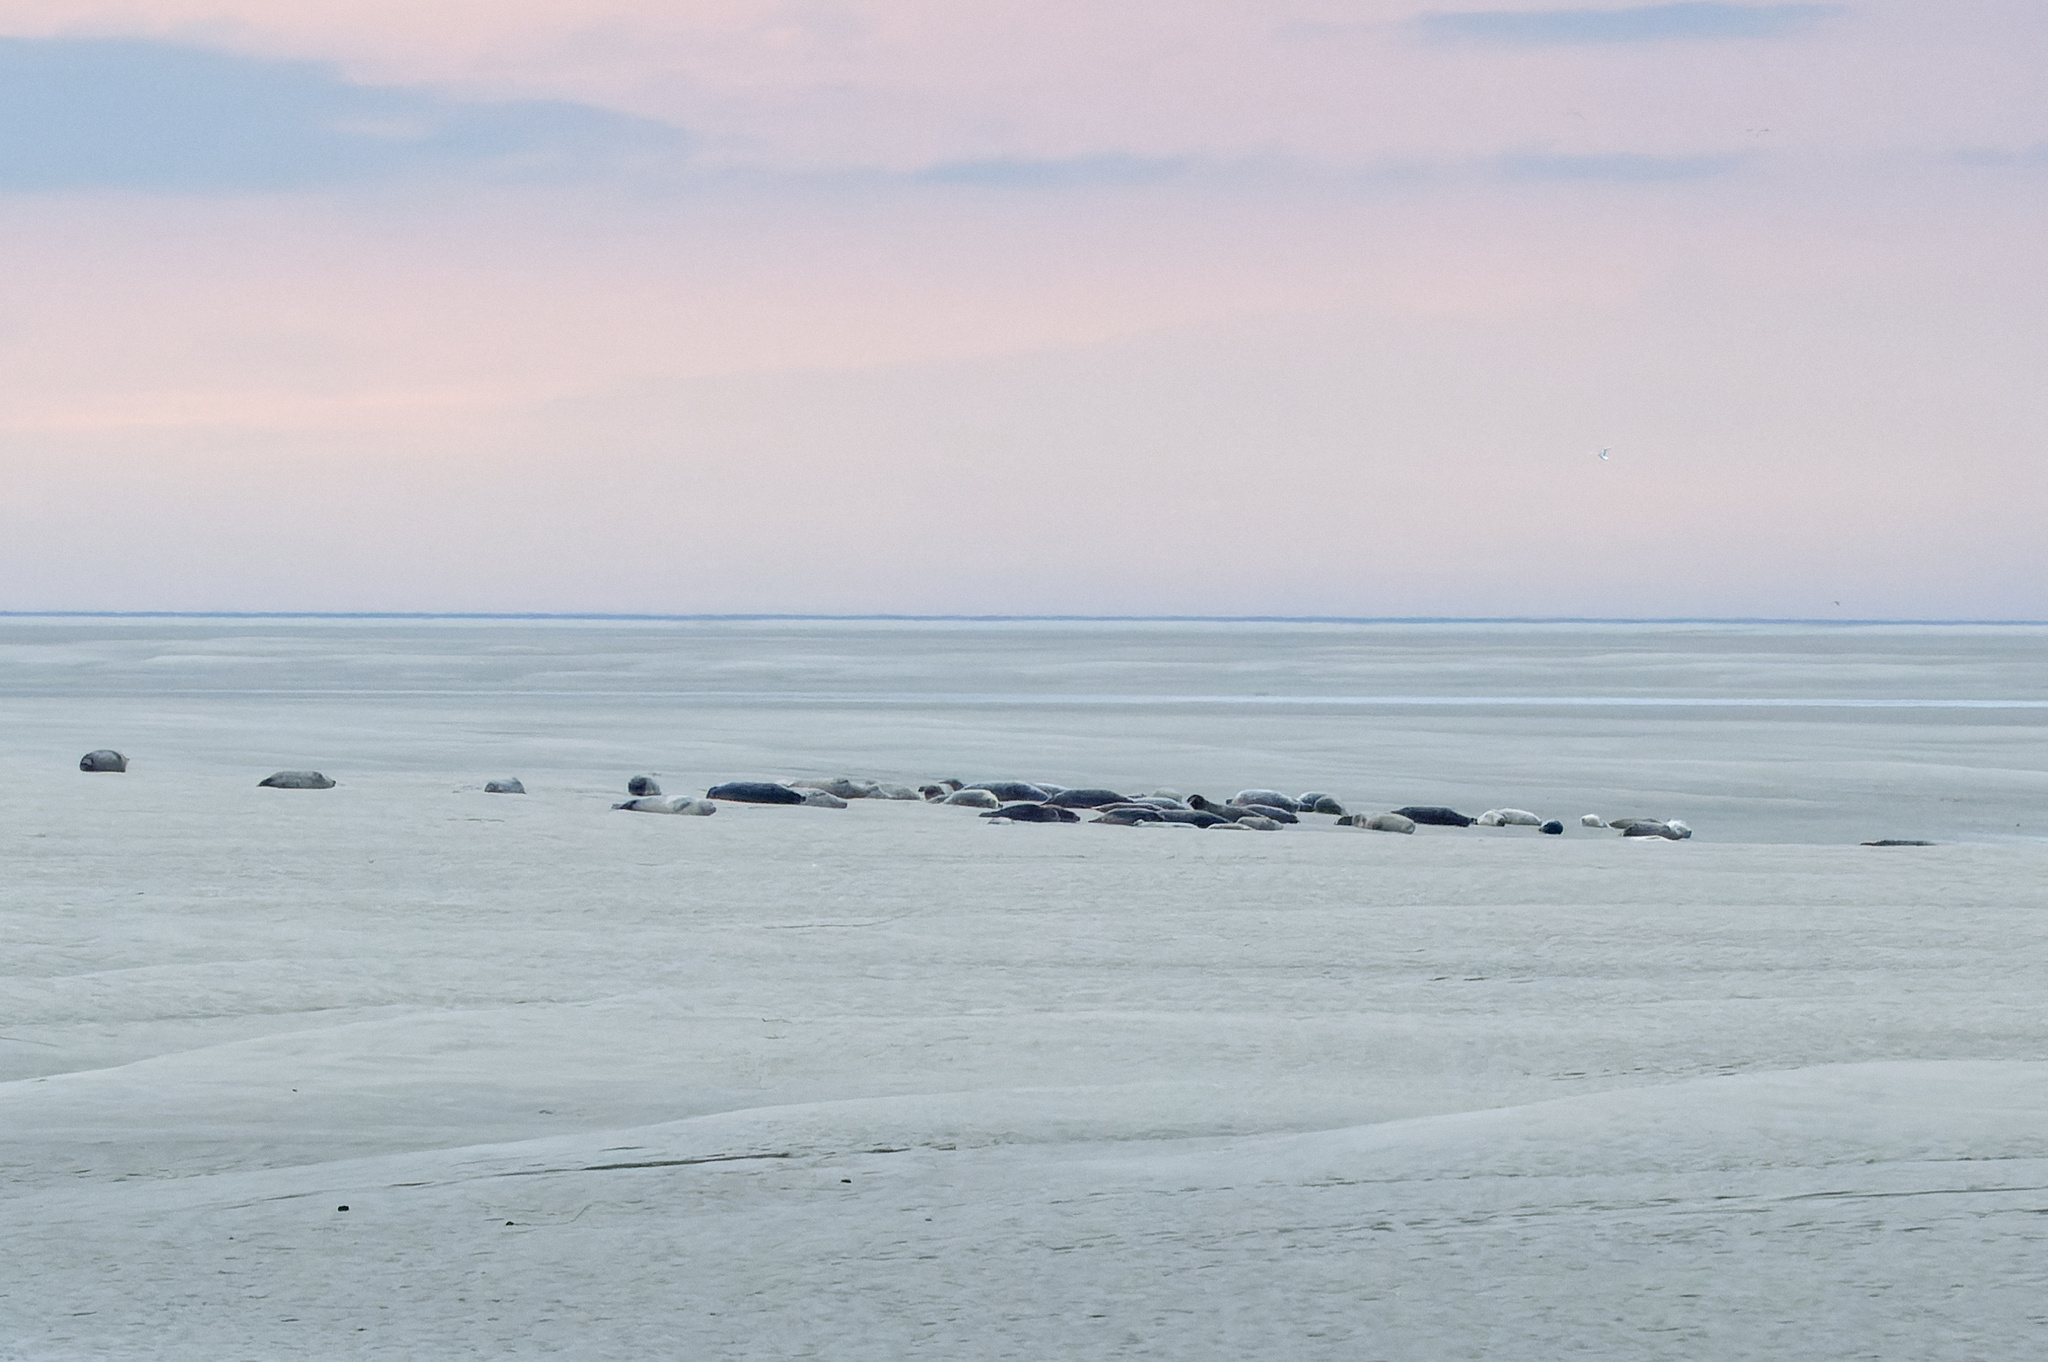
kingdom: Animalia
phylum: Chordata
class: Mammalia
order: Carnivora
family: Phocidae
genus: Phoca
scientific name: Phoca vitulina
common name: Harbor seal
